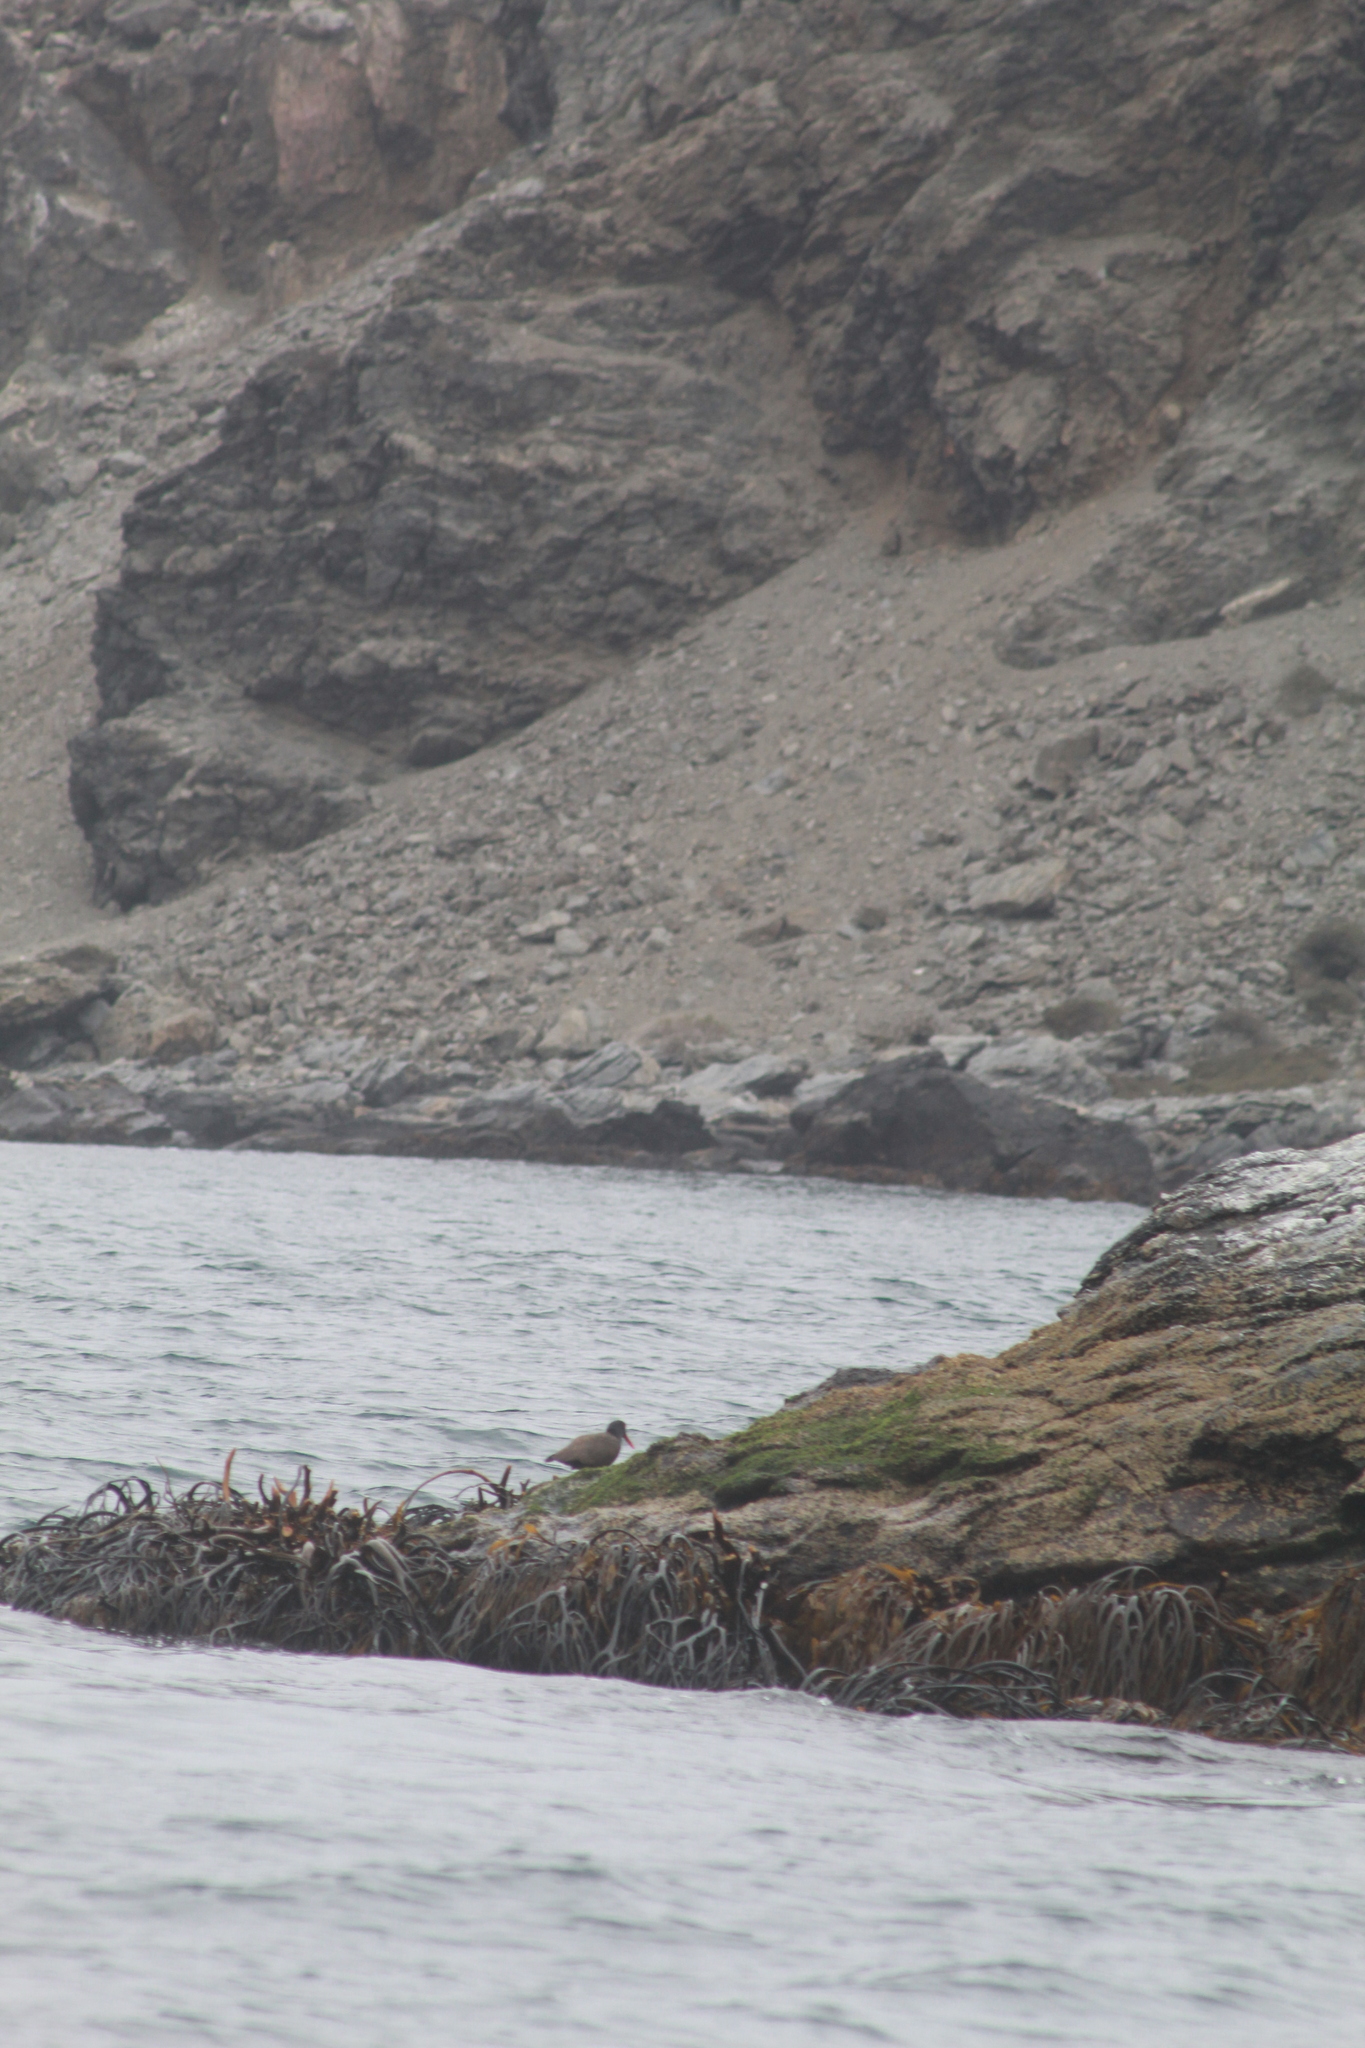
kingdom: Animalia
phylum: Chordata
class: Aves
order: Charadriiformes
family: Haematopodidae
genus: Haematopus
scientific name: Haematopus ater
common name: Blackish oystercatcher
